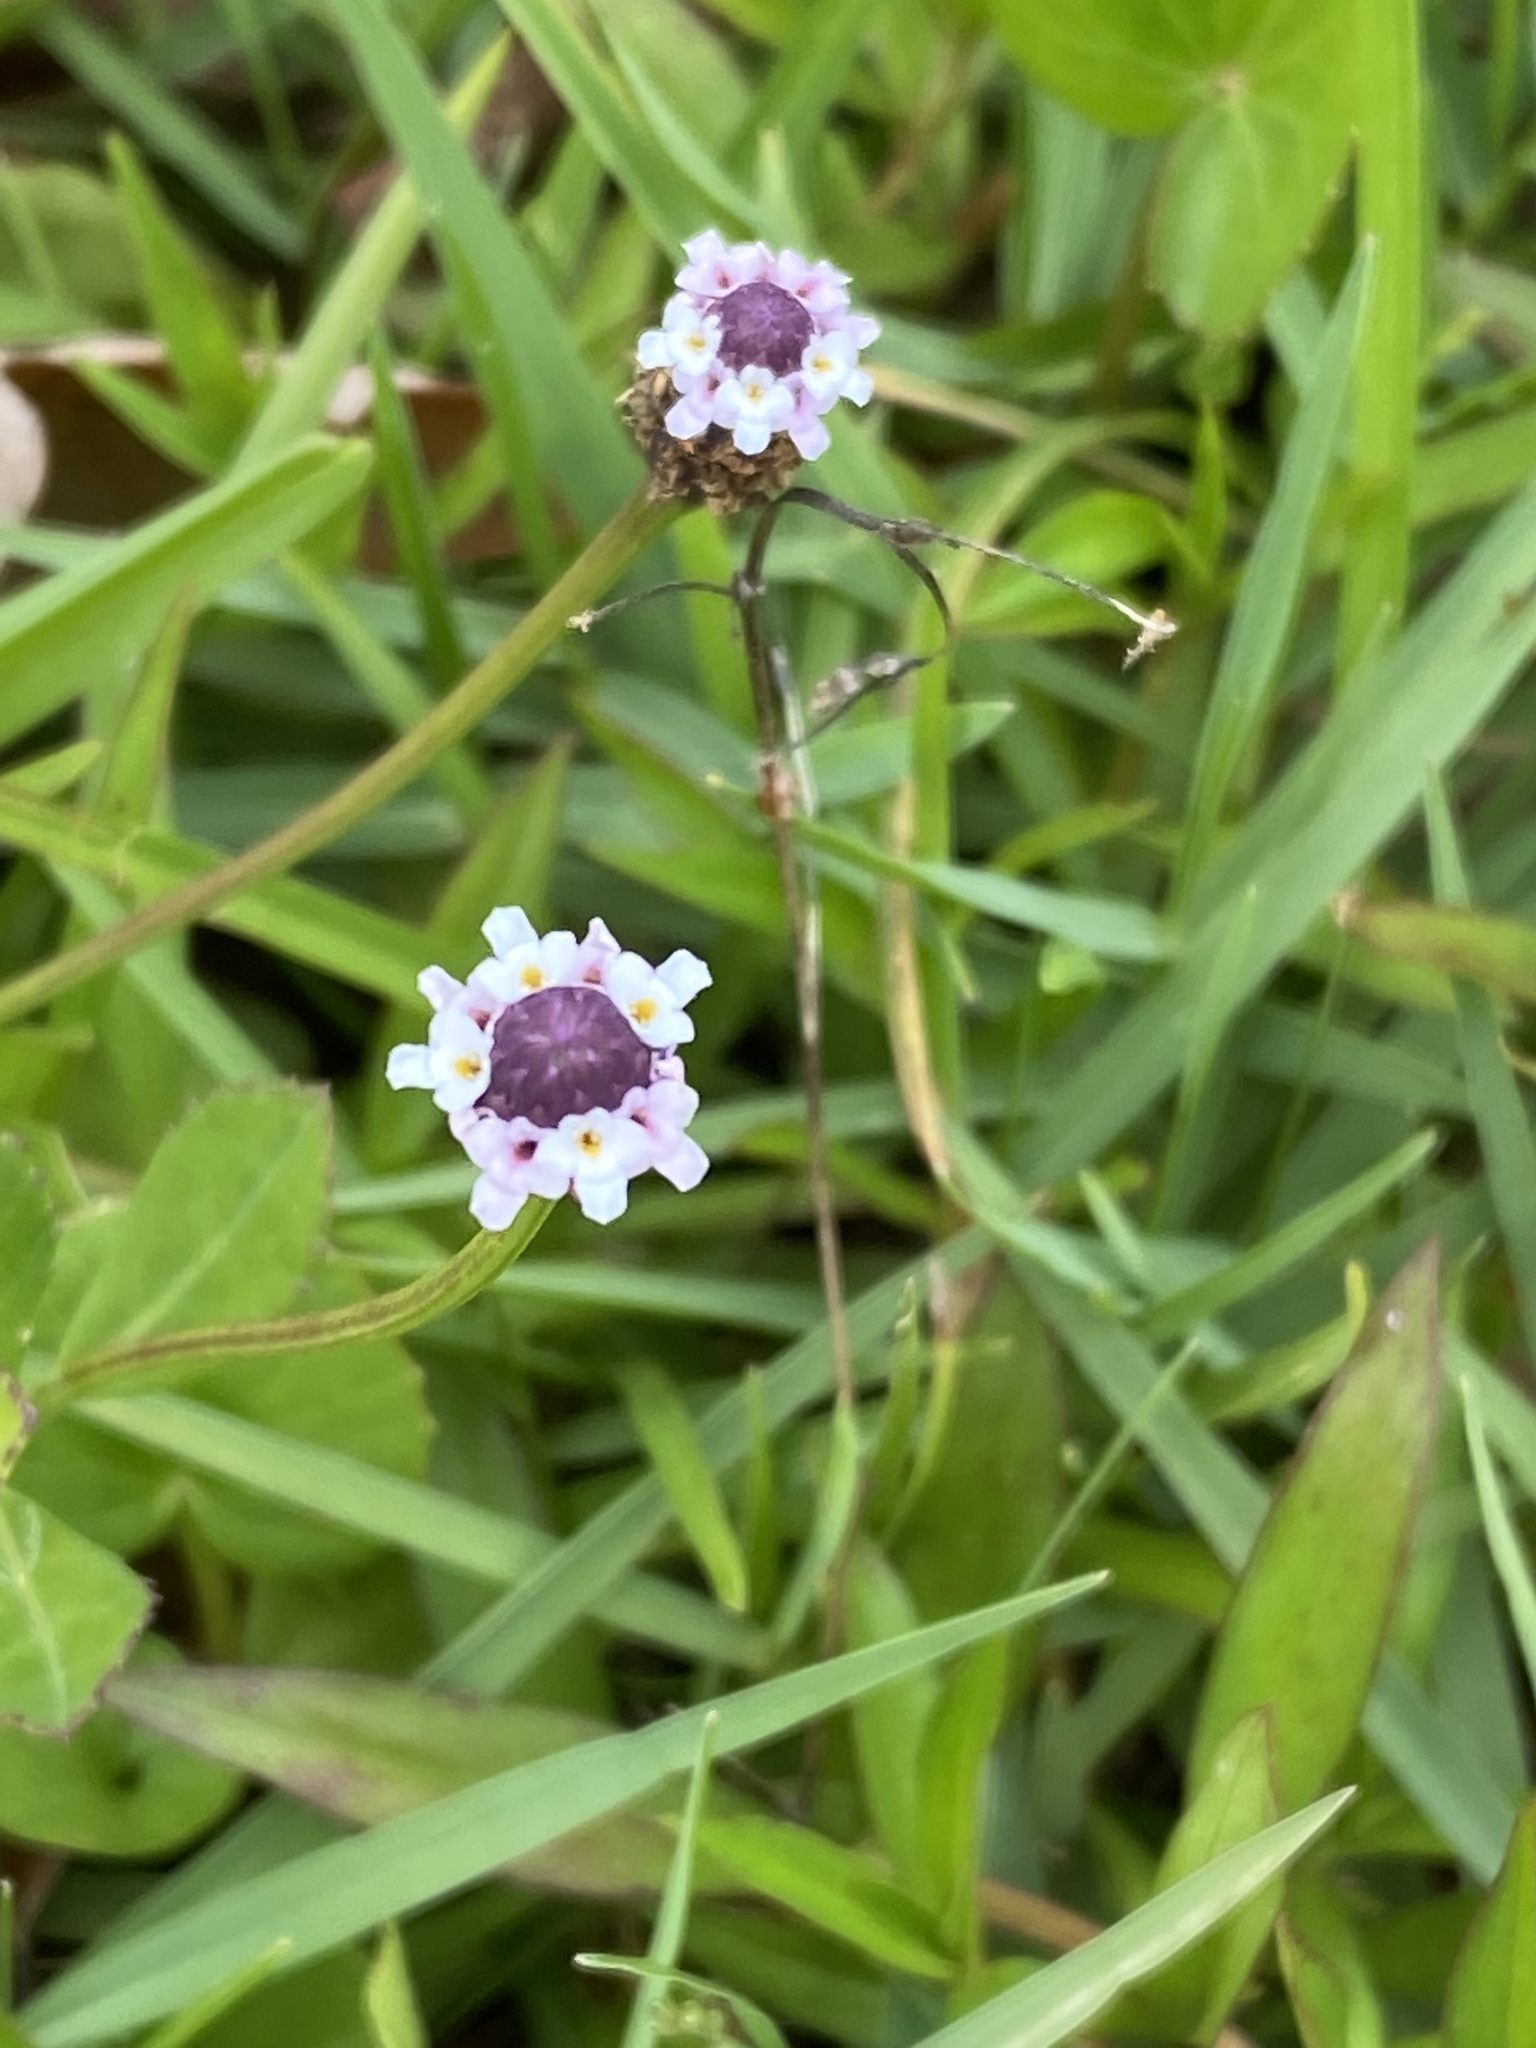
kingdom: Plantae
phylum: Tracheophyta
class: Magnoliopsida
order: Lamiales
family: Verbenaceae
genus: Phyla
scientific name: Phyla nodiflora
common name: Frogfruit
